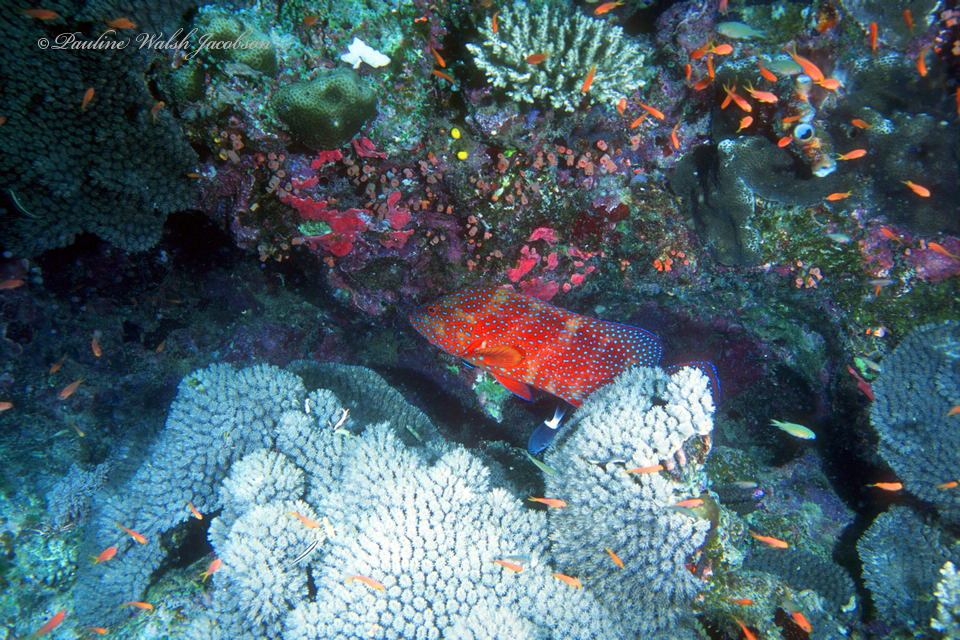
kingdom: Animalia
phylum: Chordata
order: Perciformes
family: Serranidae
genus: Cephalopholis
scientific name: Cephalopholis miniata
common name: Coral hind
